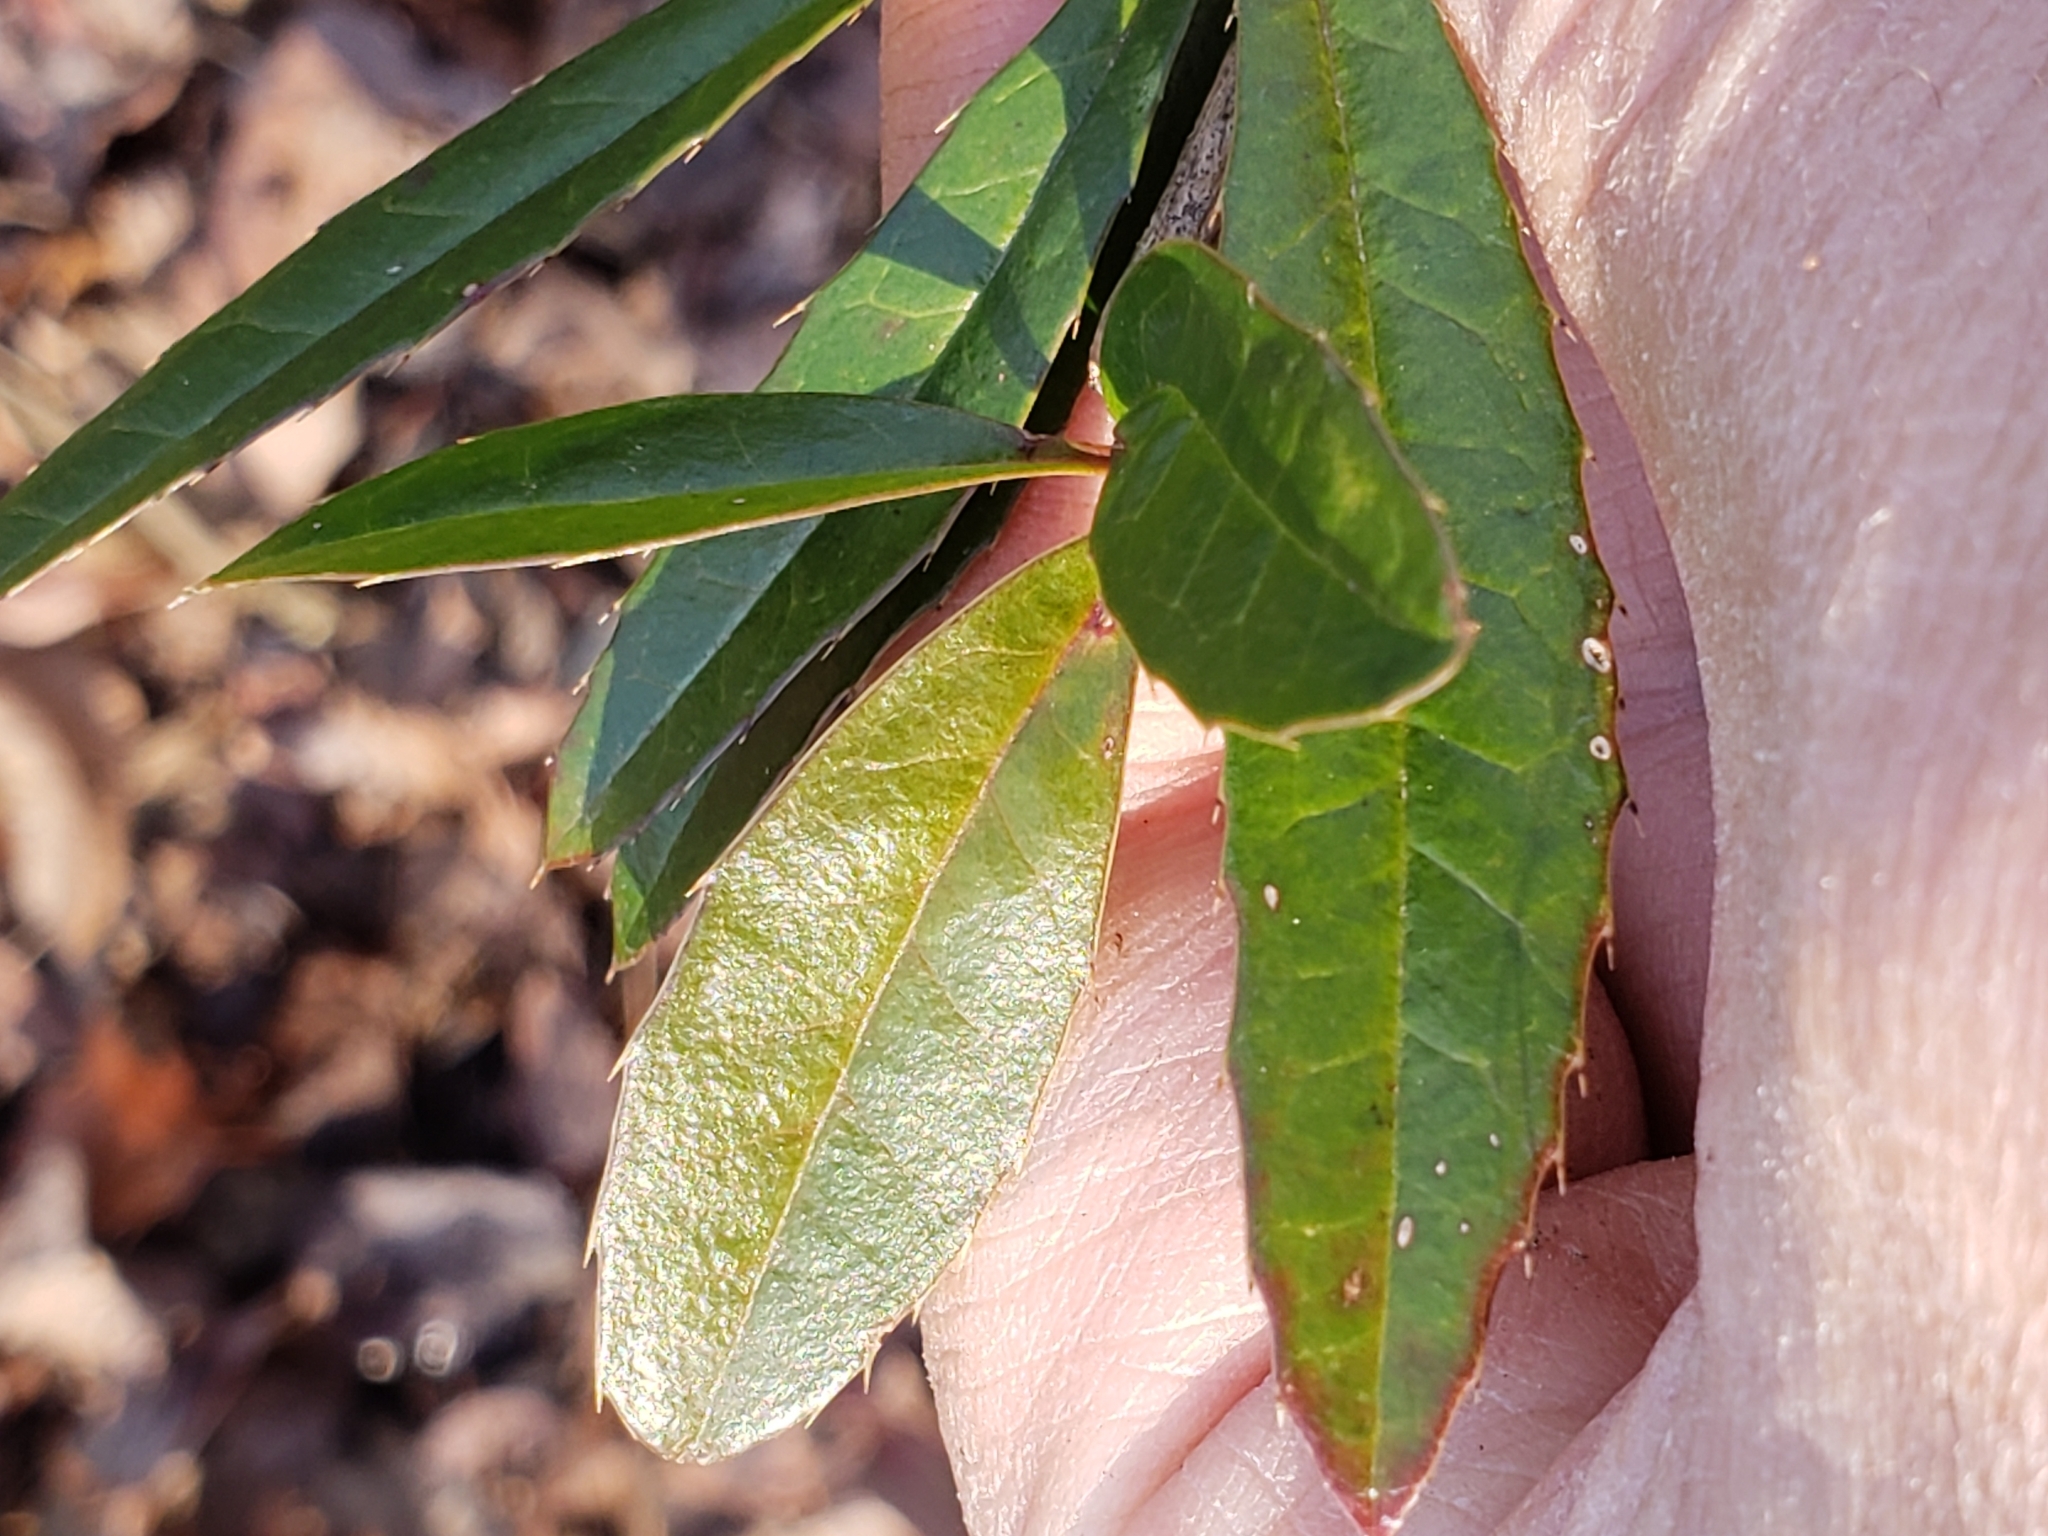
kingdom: Plantae
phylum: Tracheophyta
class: Magnoliopsida
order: Ranunculales
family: Berberidaceae
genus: Berberis
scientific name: Berberis julianae
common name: Wintergreen barberry
